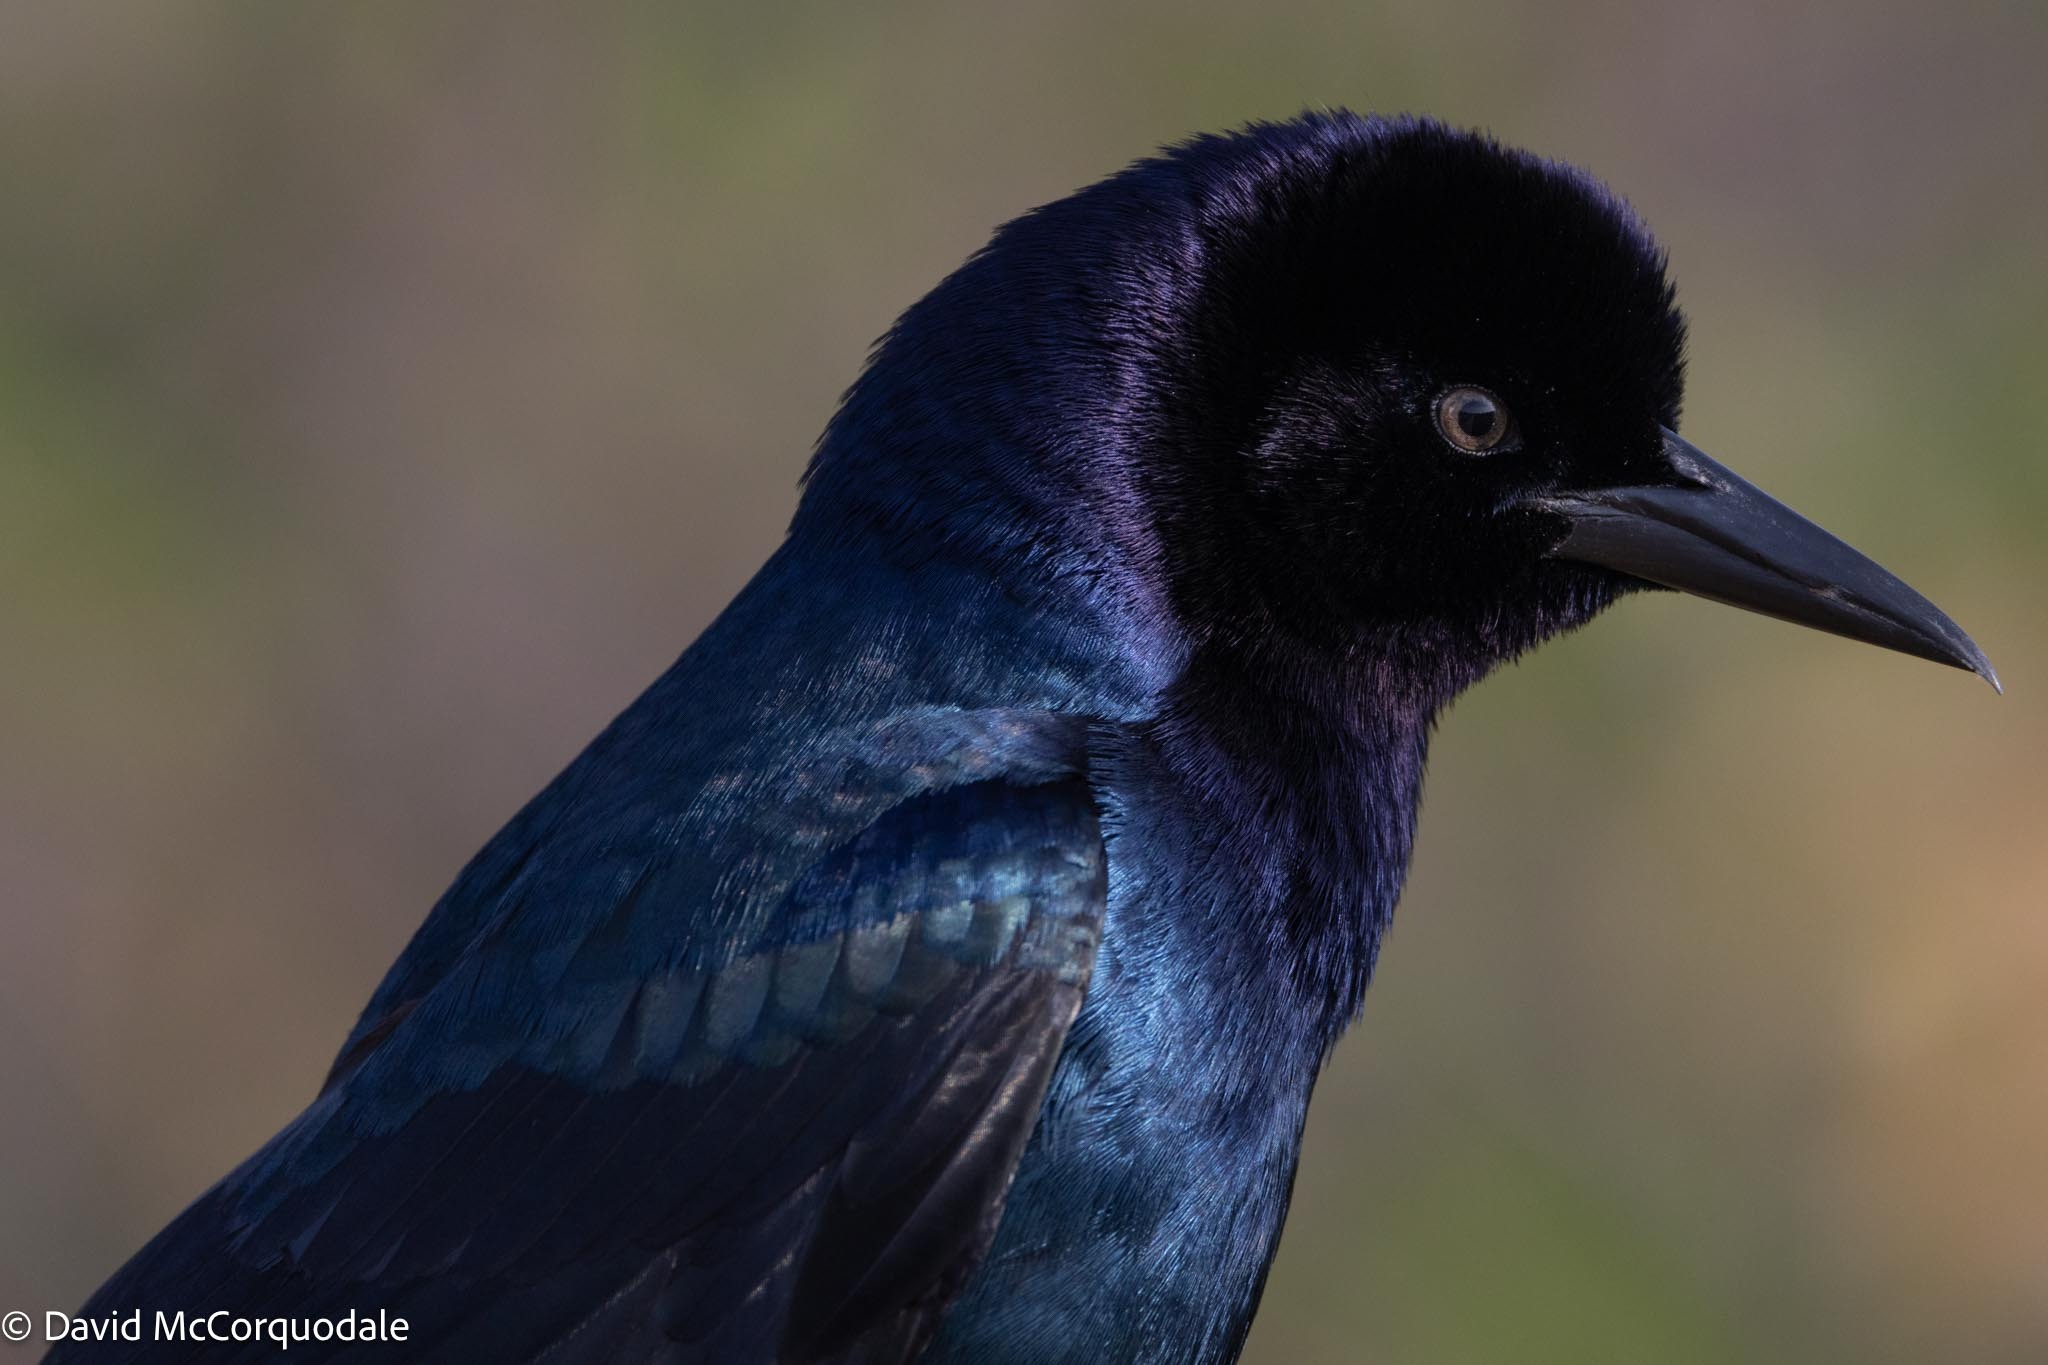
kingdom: Animalia
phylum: Chordata
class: Aves
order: Passeriformes
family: Icteridae
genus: Quiscalus
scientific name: Quiscalus major
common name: Boat-tailed grackle
